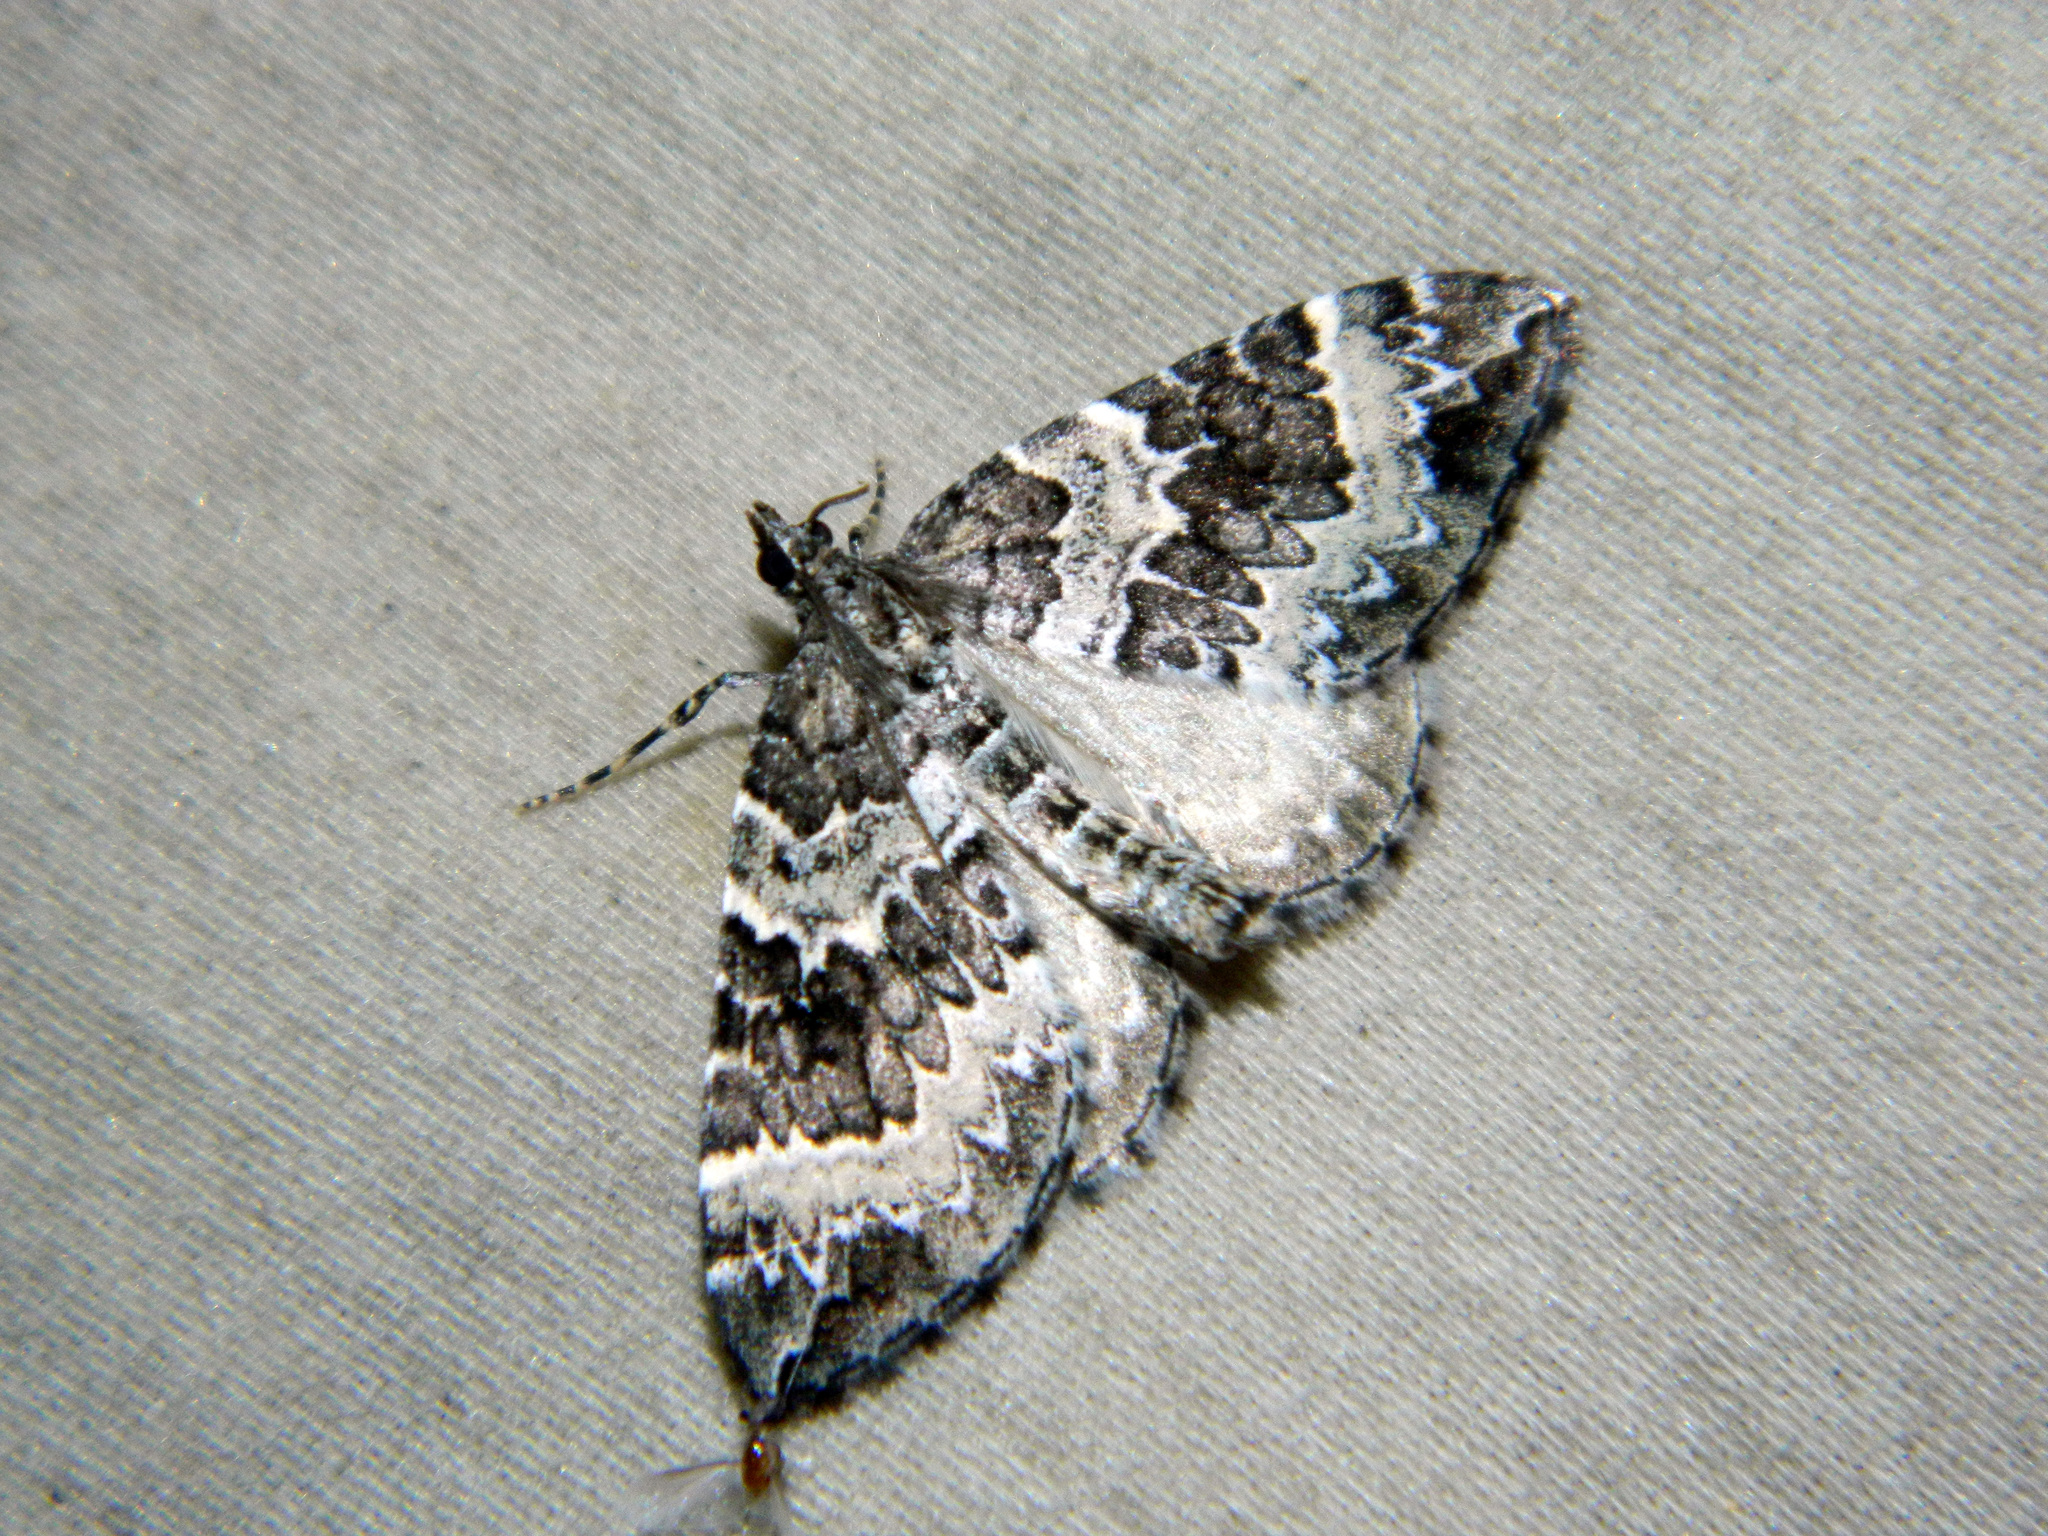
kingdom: Animalia
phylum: Arthropoda
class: Insecta
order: Lepidoptera
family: Geometridae
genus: Eulithis
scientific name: Eulithis explanata
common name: White eulithis
